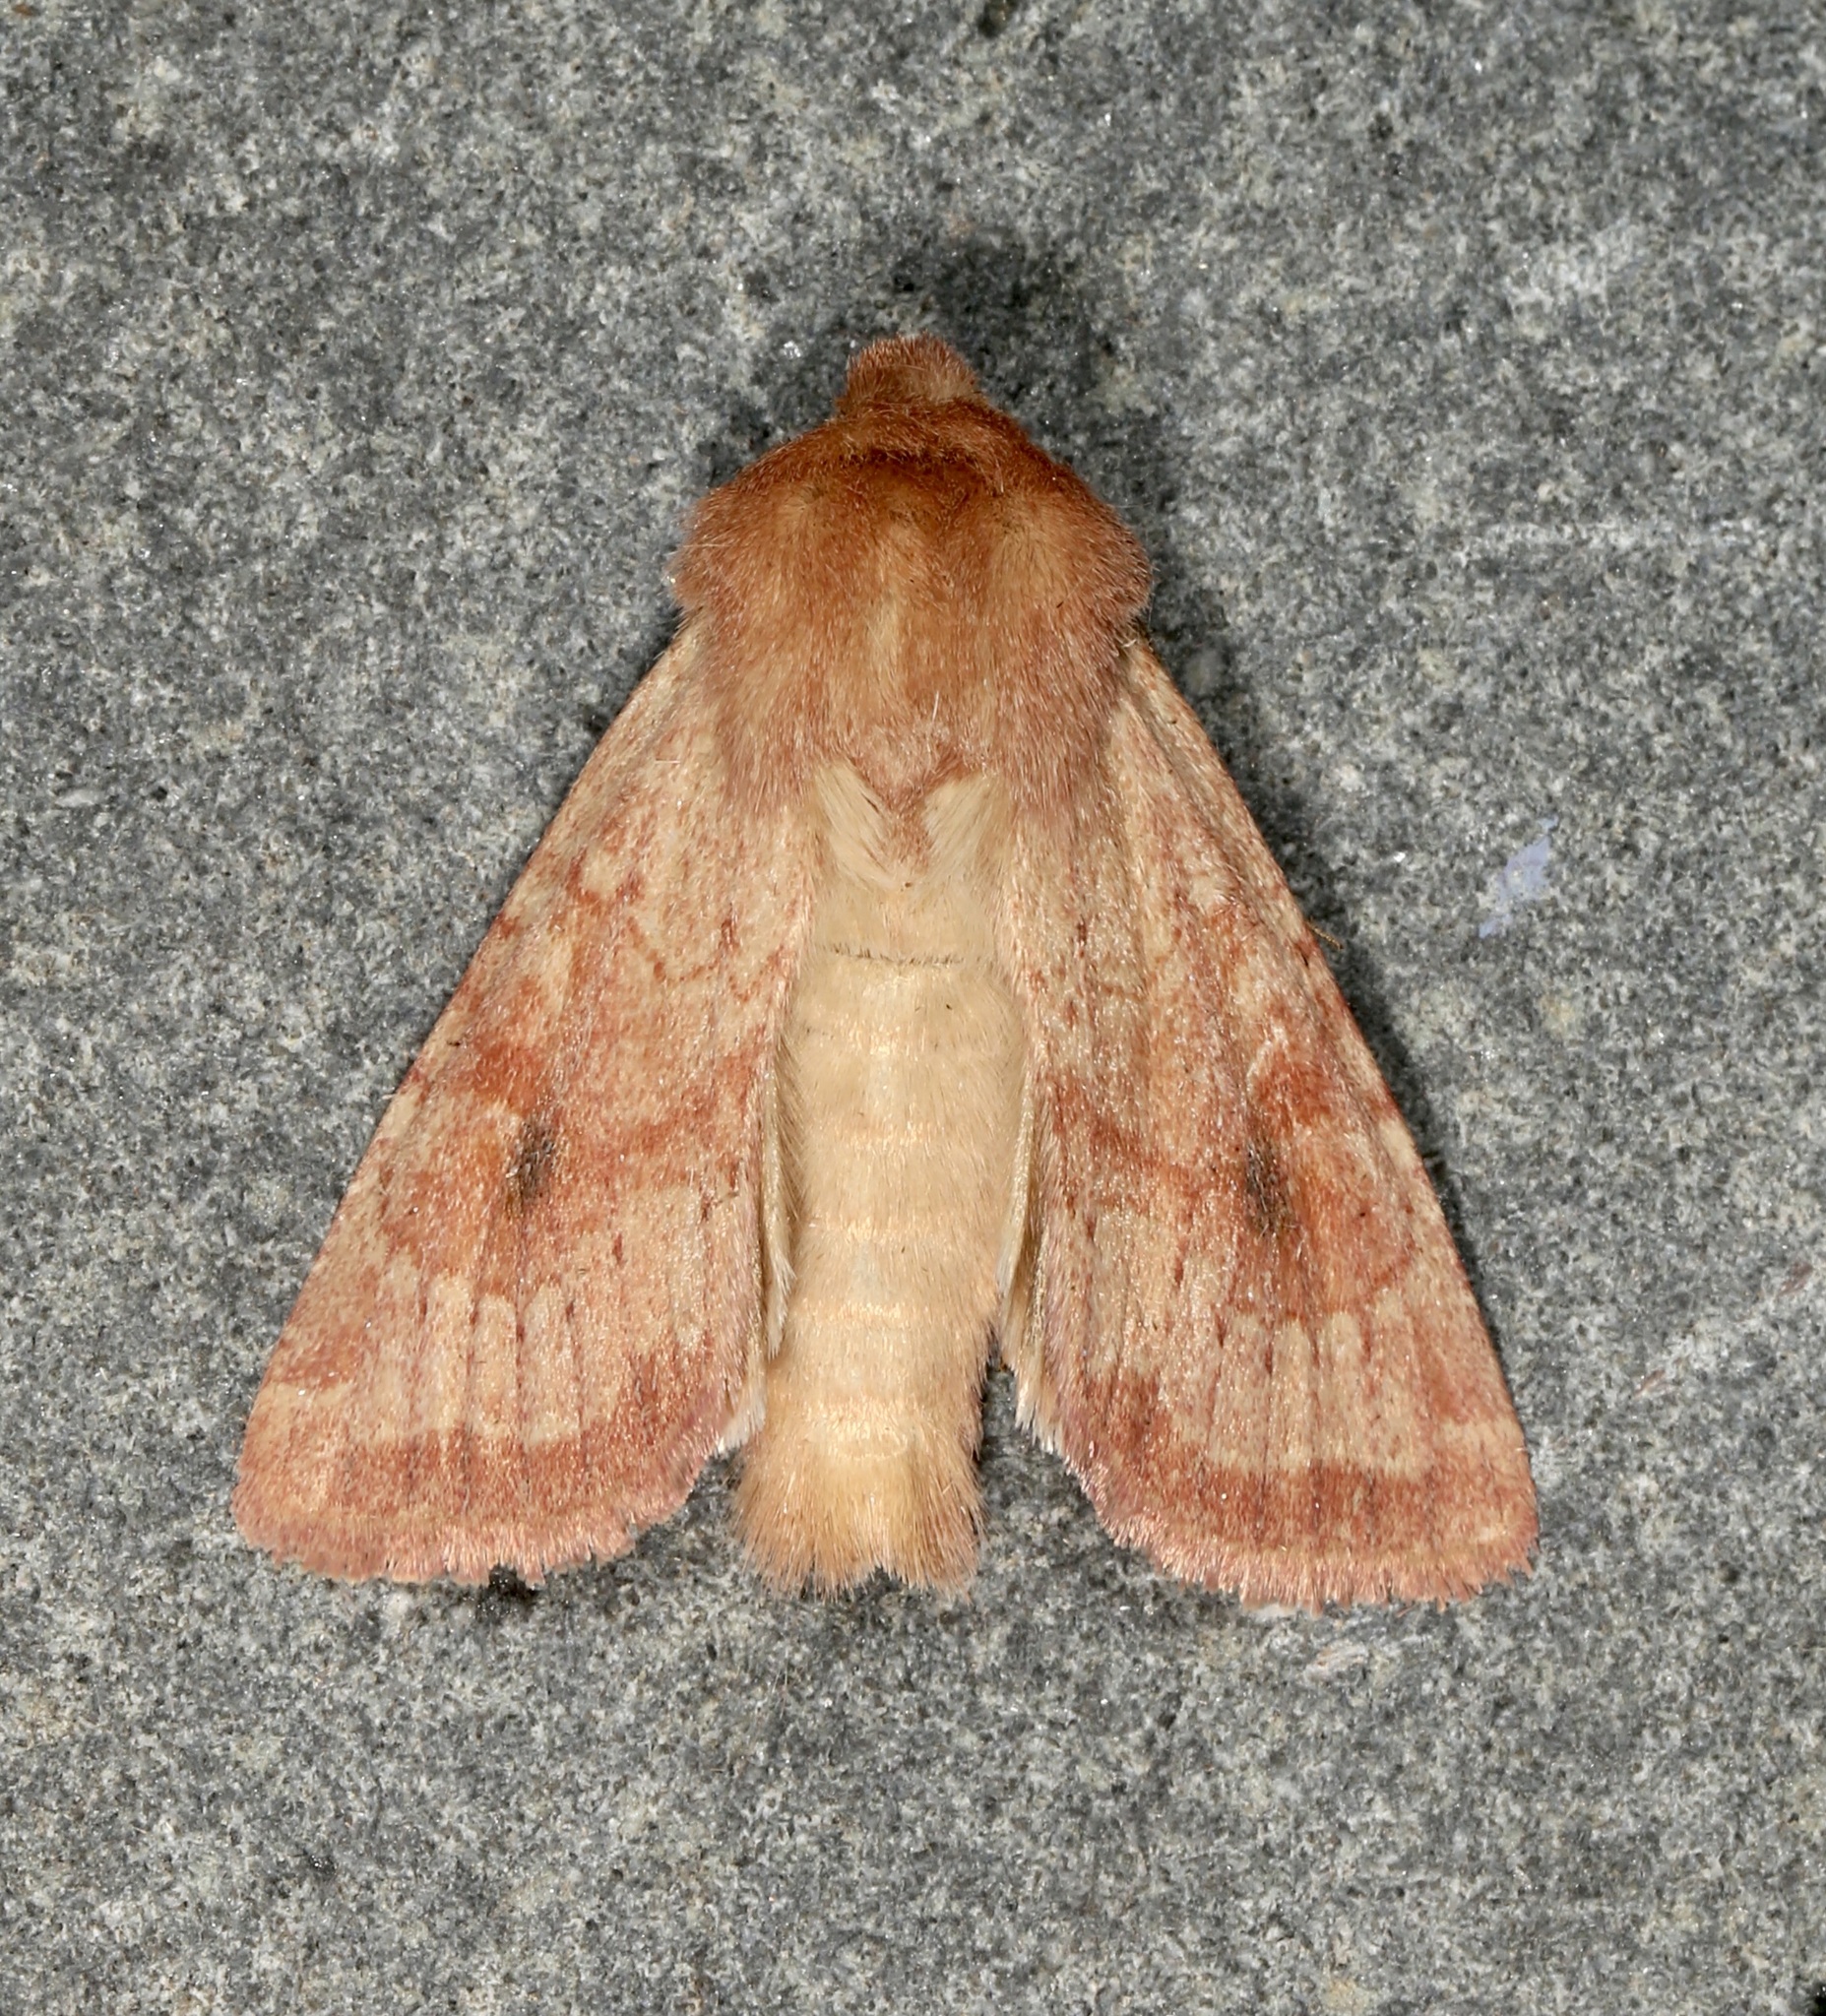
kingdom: Animalia
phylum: Arthropoda
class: Insecta
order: Lepidoptera
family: Noctuidae
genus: Apamea
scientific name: Apamea inficita
